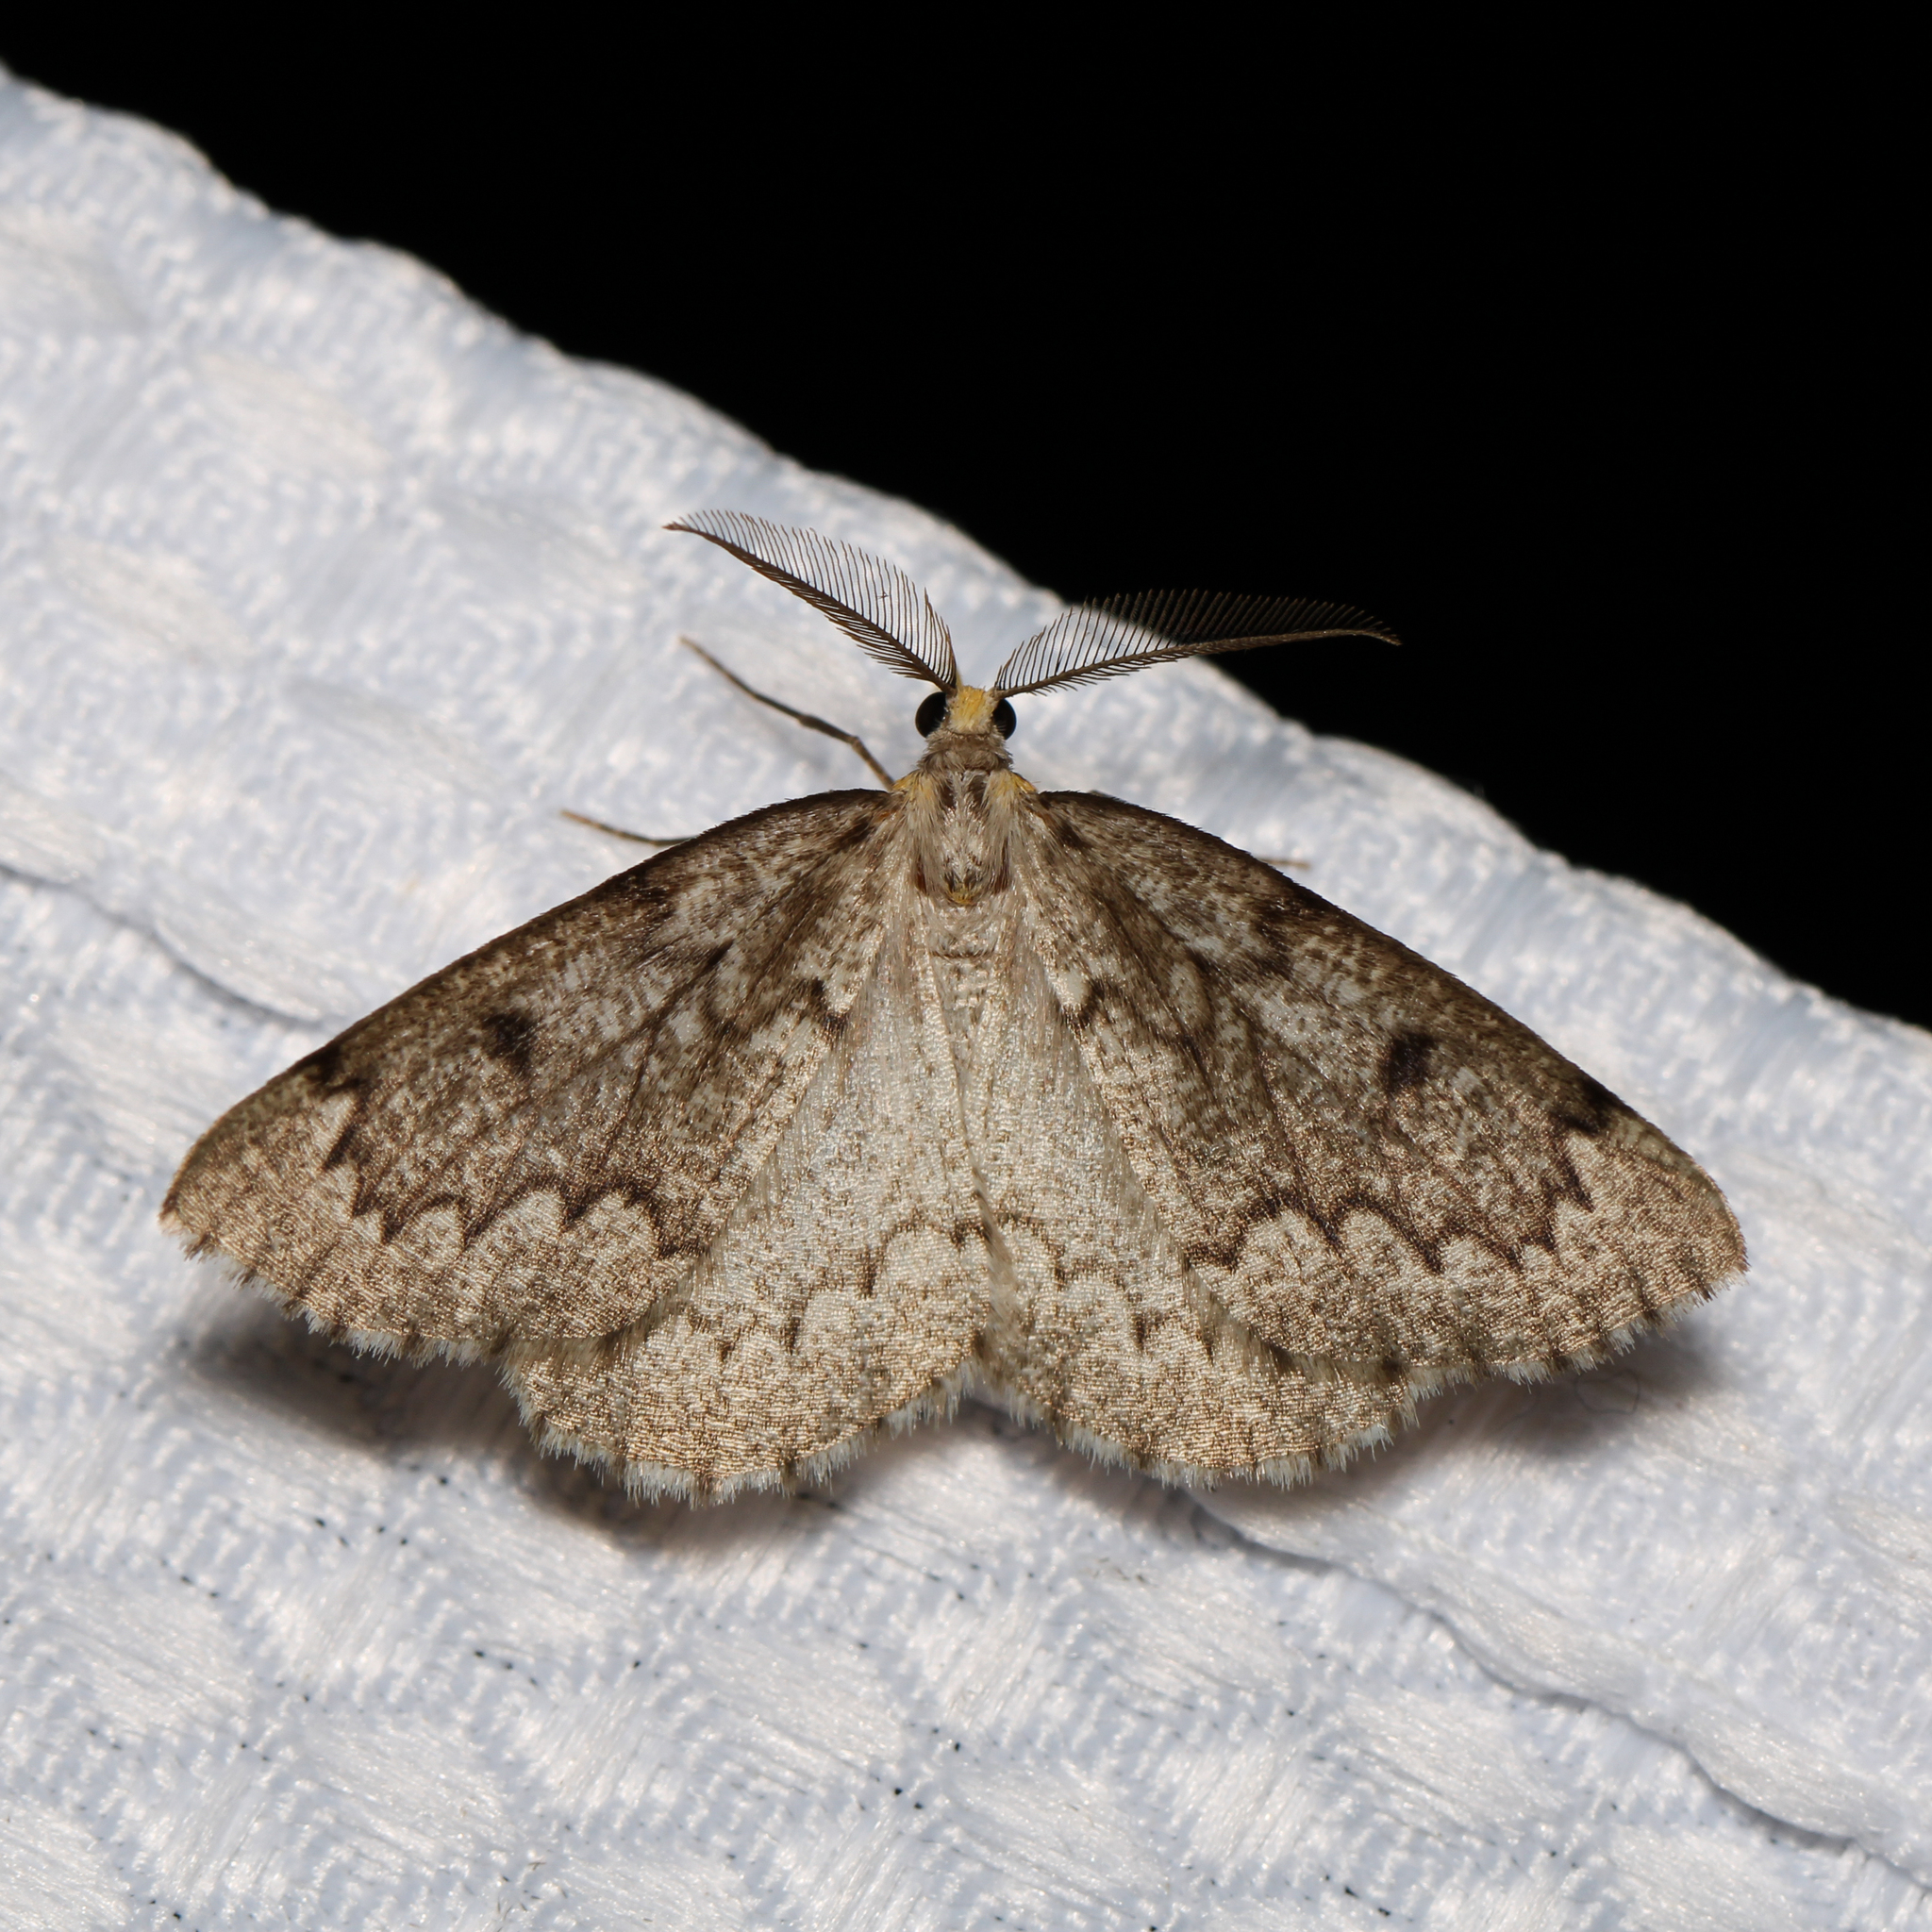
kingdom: Animalia
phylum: Arthropoda
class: Insecta
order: Lepidoptera
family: Geometridae
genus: Nepytia
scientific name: Nepytia canosaria
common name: False hemlock looper
